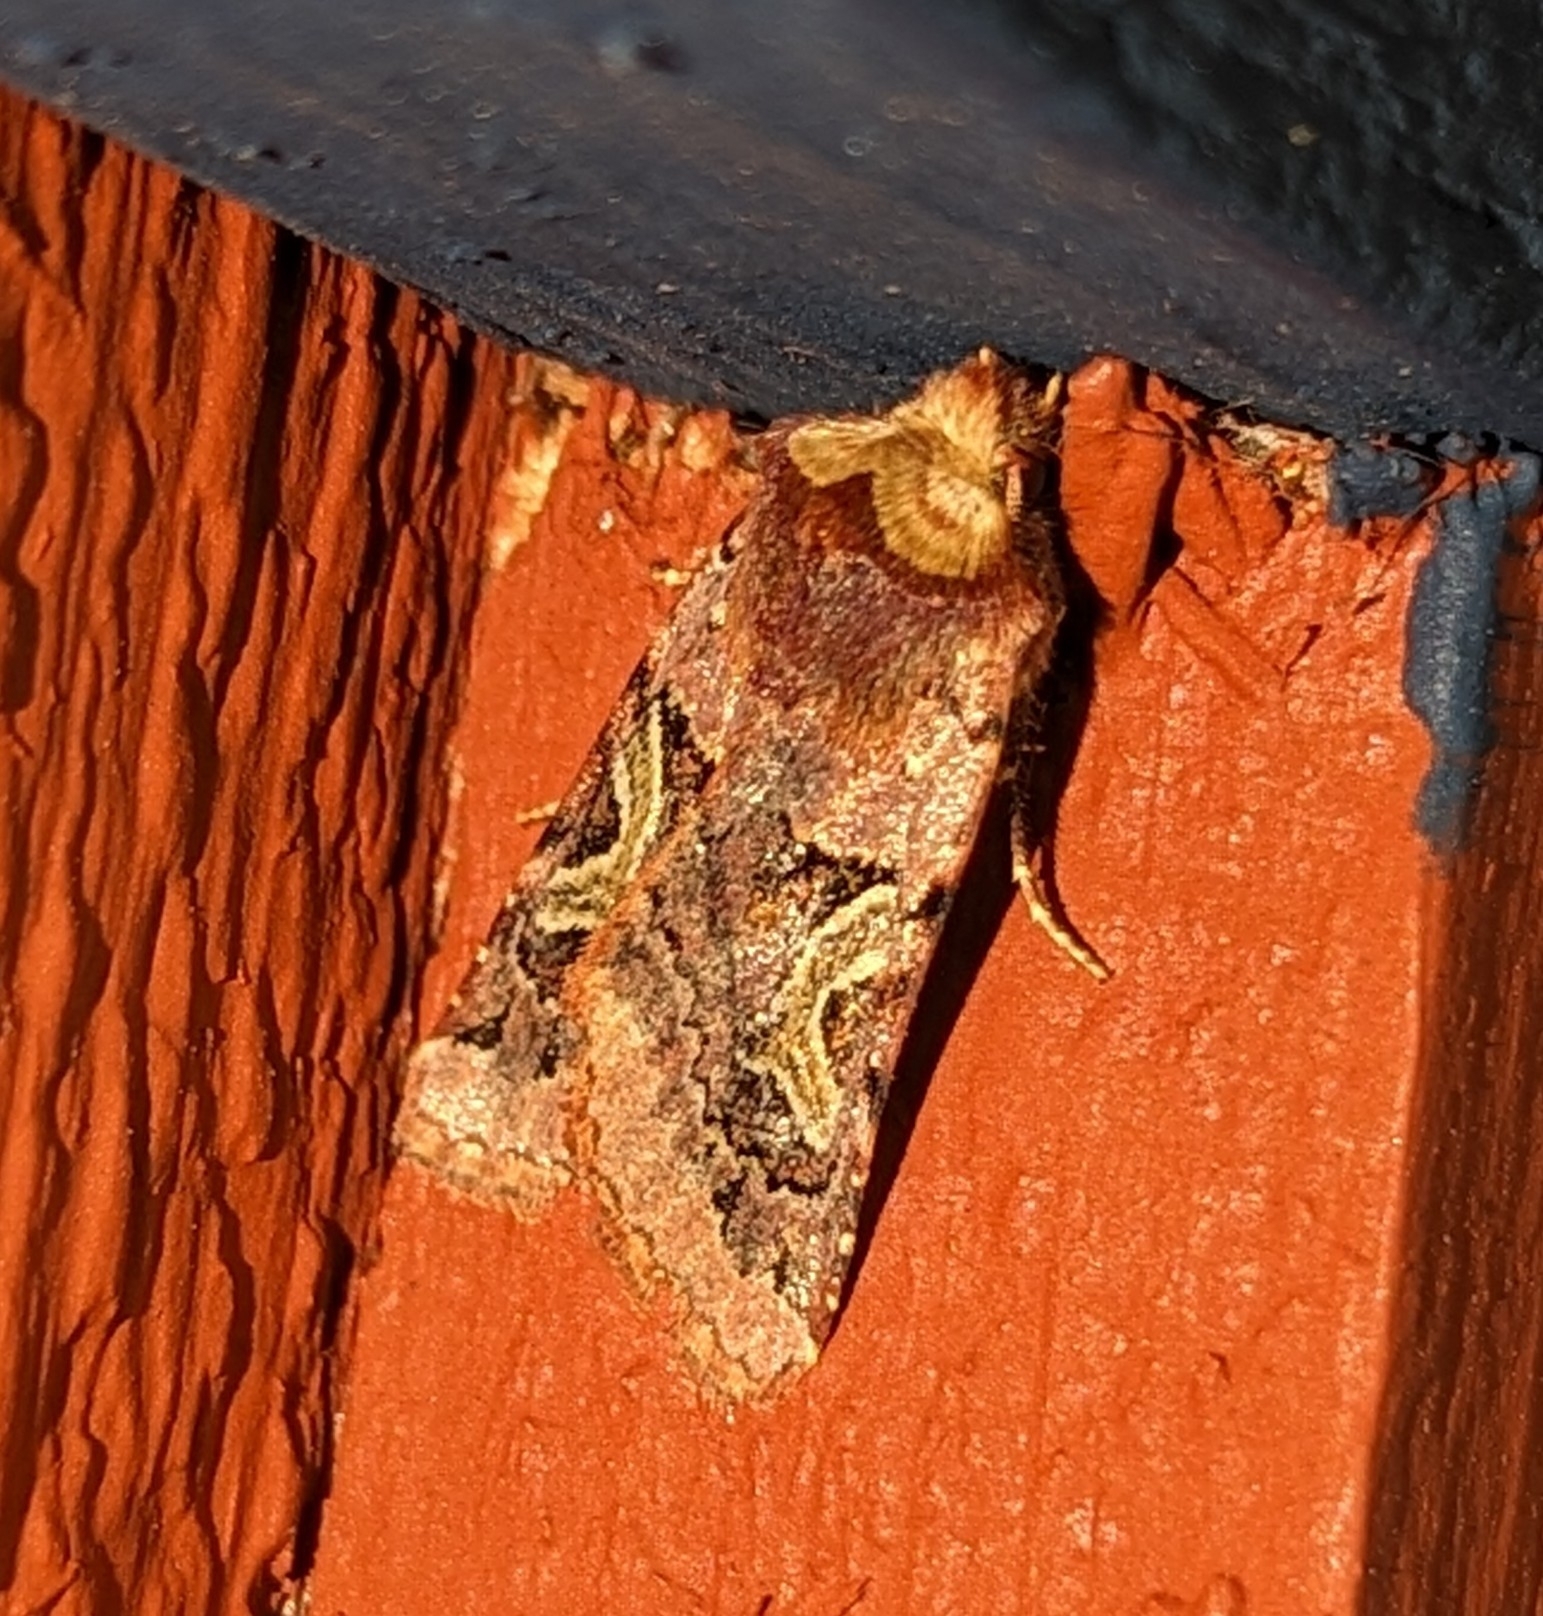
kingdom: Animalia
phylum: Arthropoda
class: Insecta
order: Lepidoptera
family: Noctuidae
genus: Cerastis
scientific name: Cerastis enigmatica
